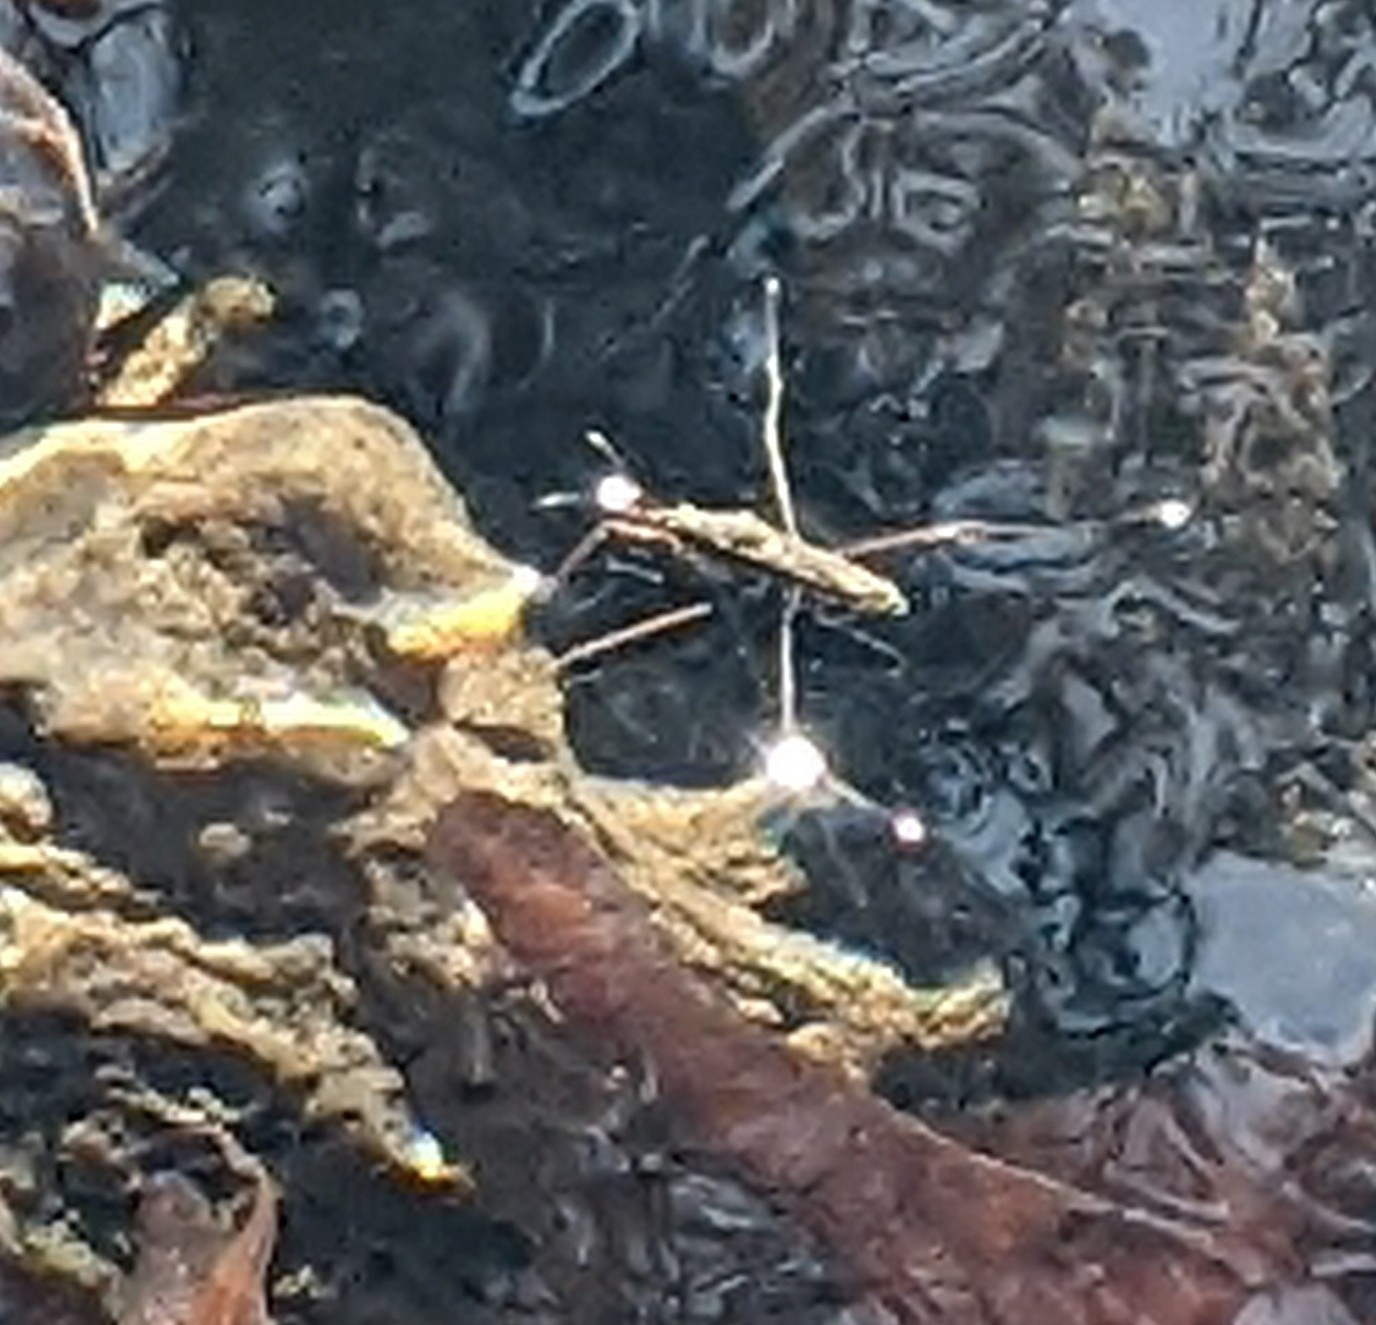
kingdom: Animalia
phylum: Arthropoda
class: Insecta
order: Hemiptera
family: Gerridae
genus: Aquarius
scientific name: Aquarius
